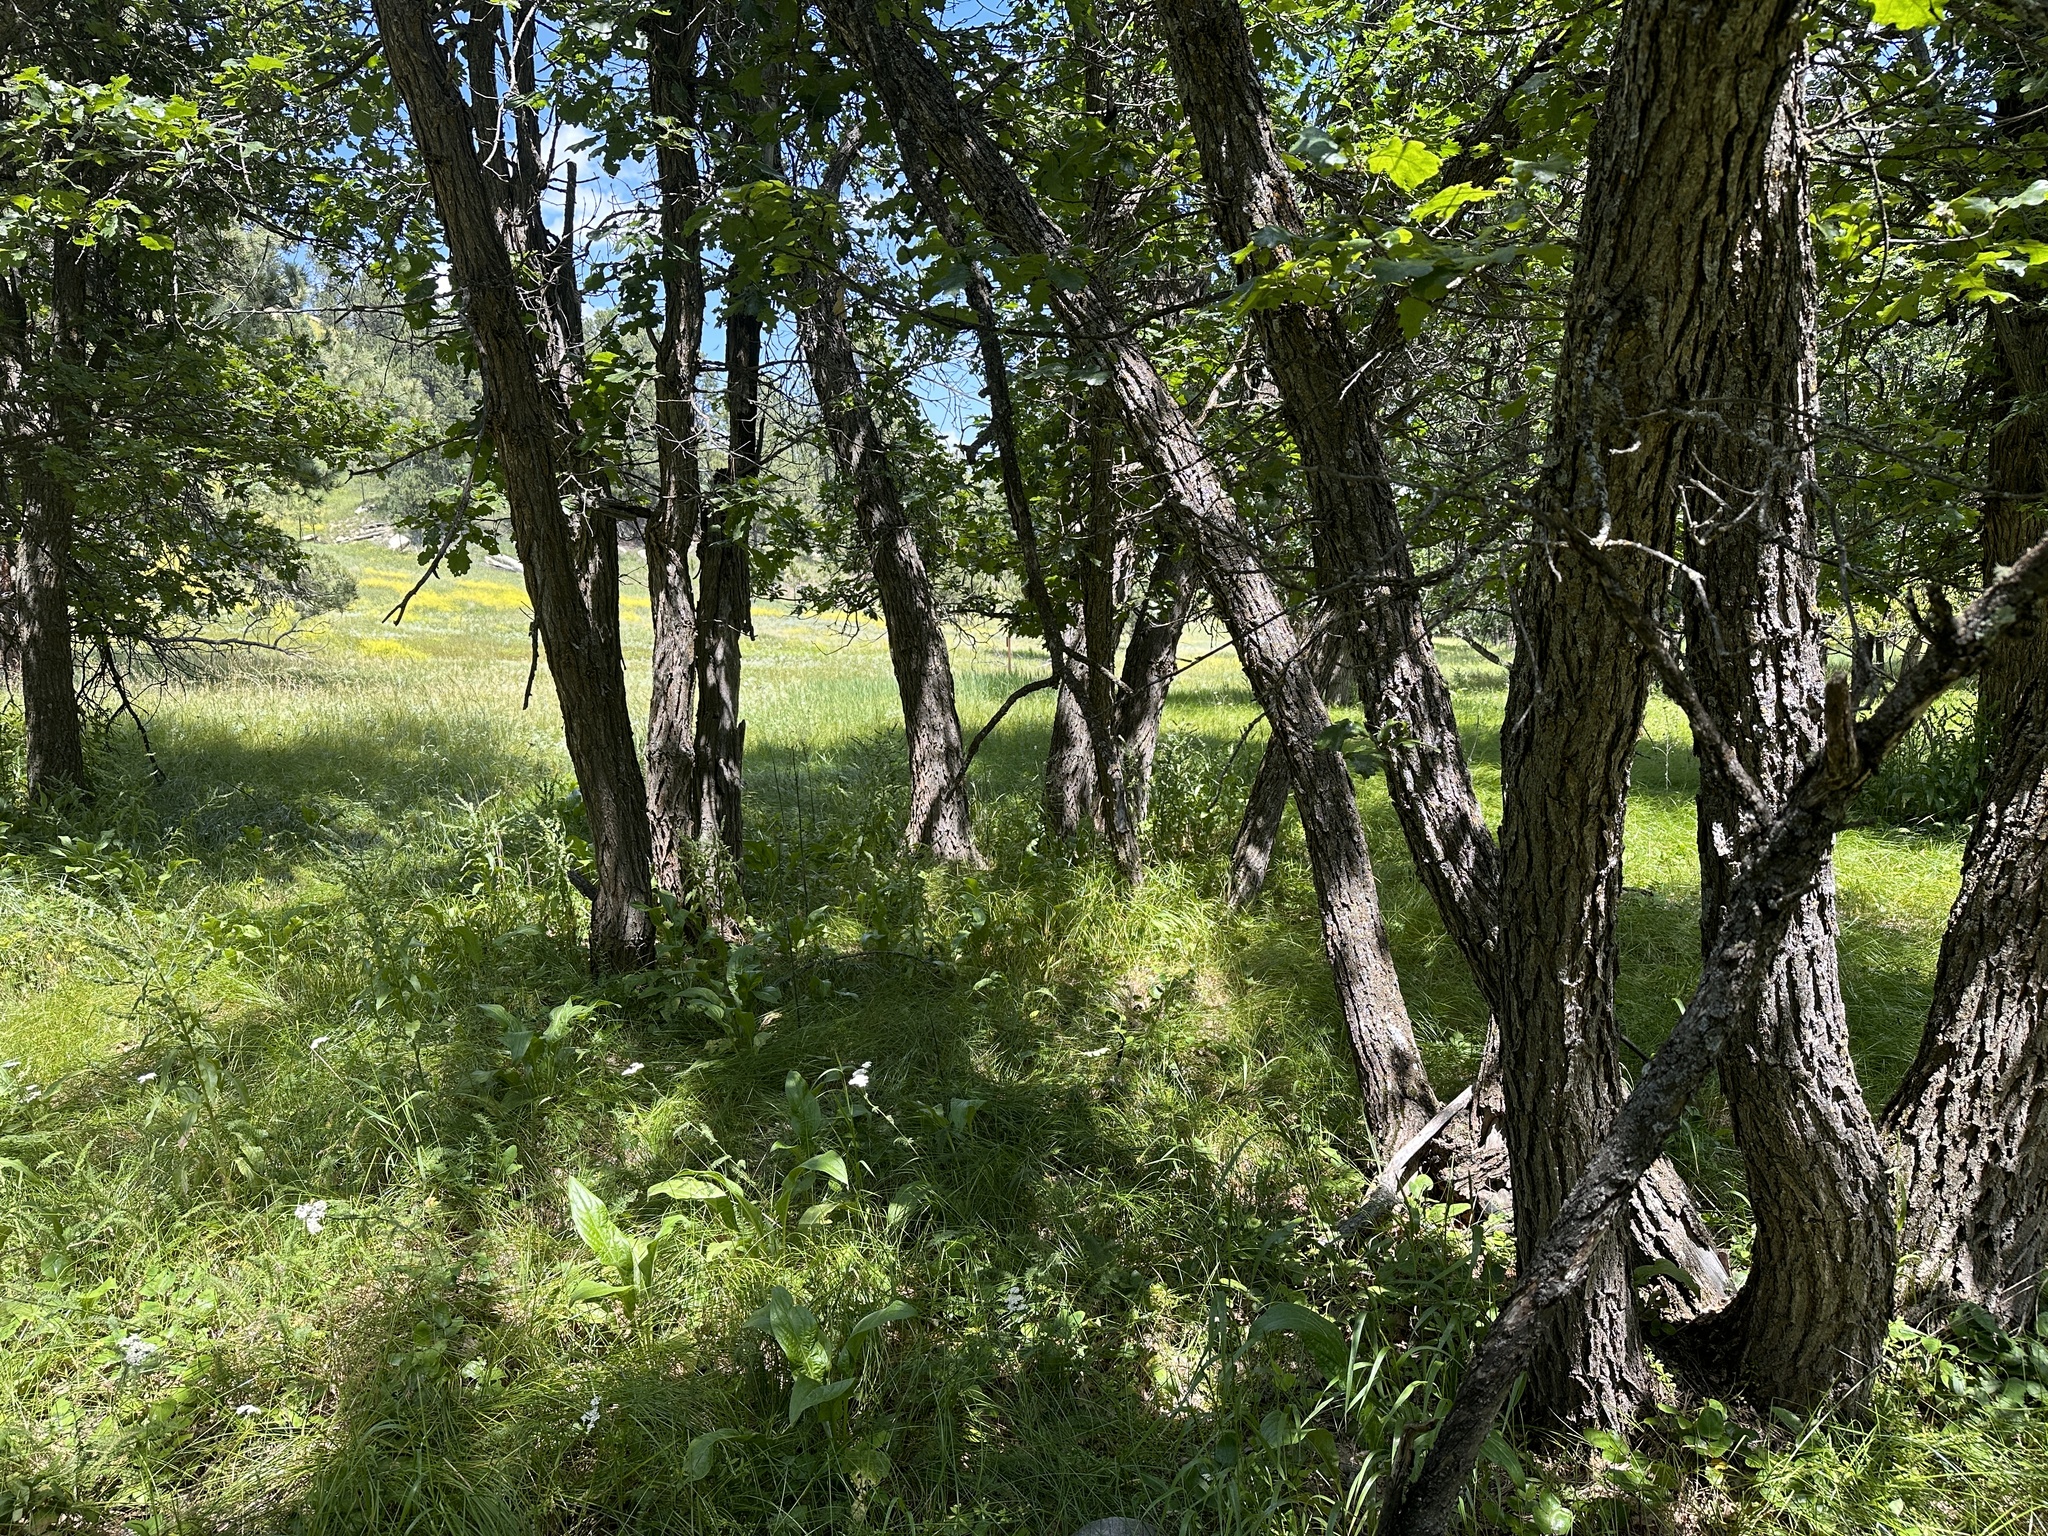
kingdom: Plantae
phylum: Tracheophyta
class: Magnoliopsida
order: Fagales
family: Fagaceae
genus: Quercus
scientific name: Quercus macrocarpa
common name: Bur oak
